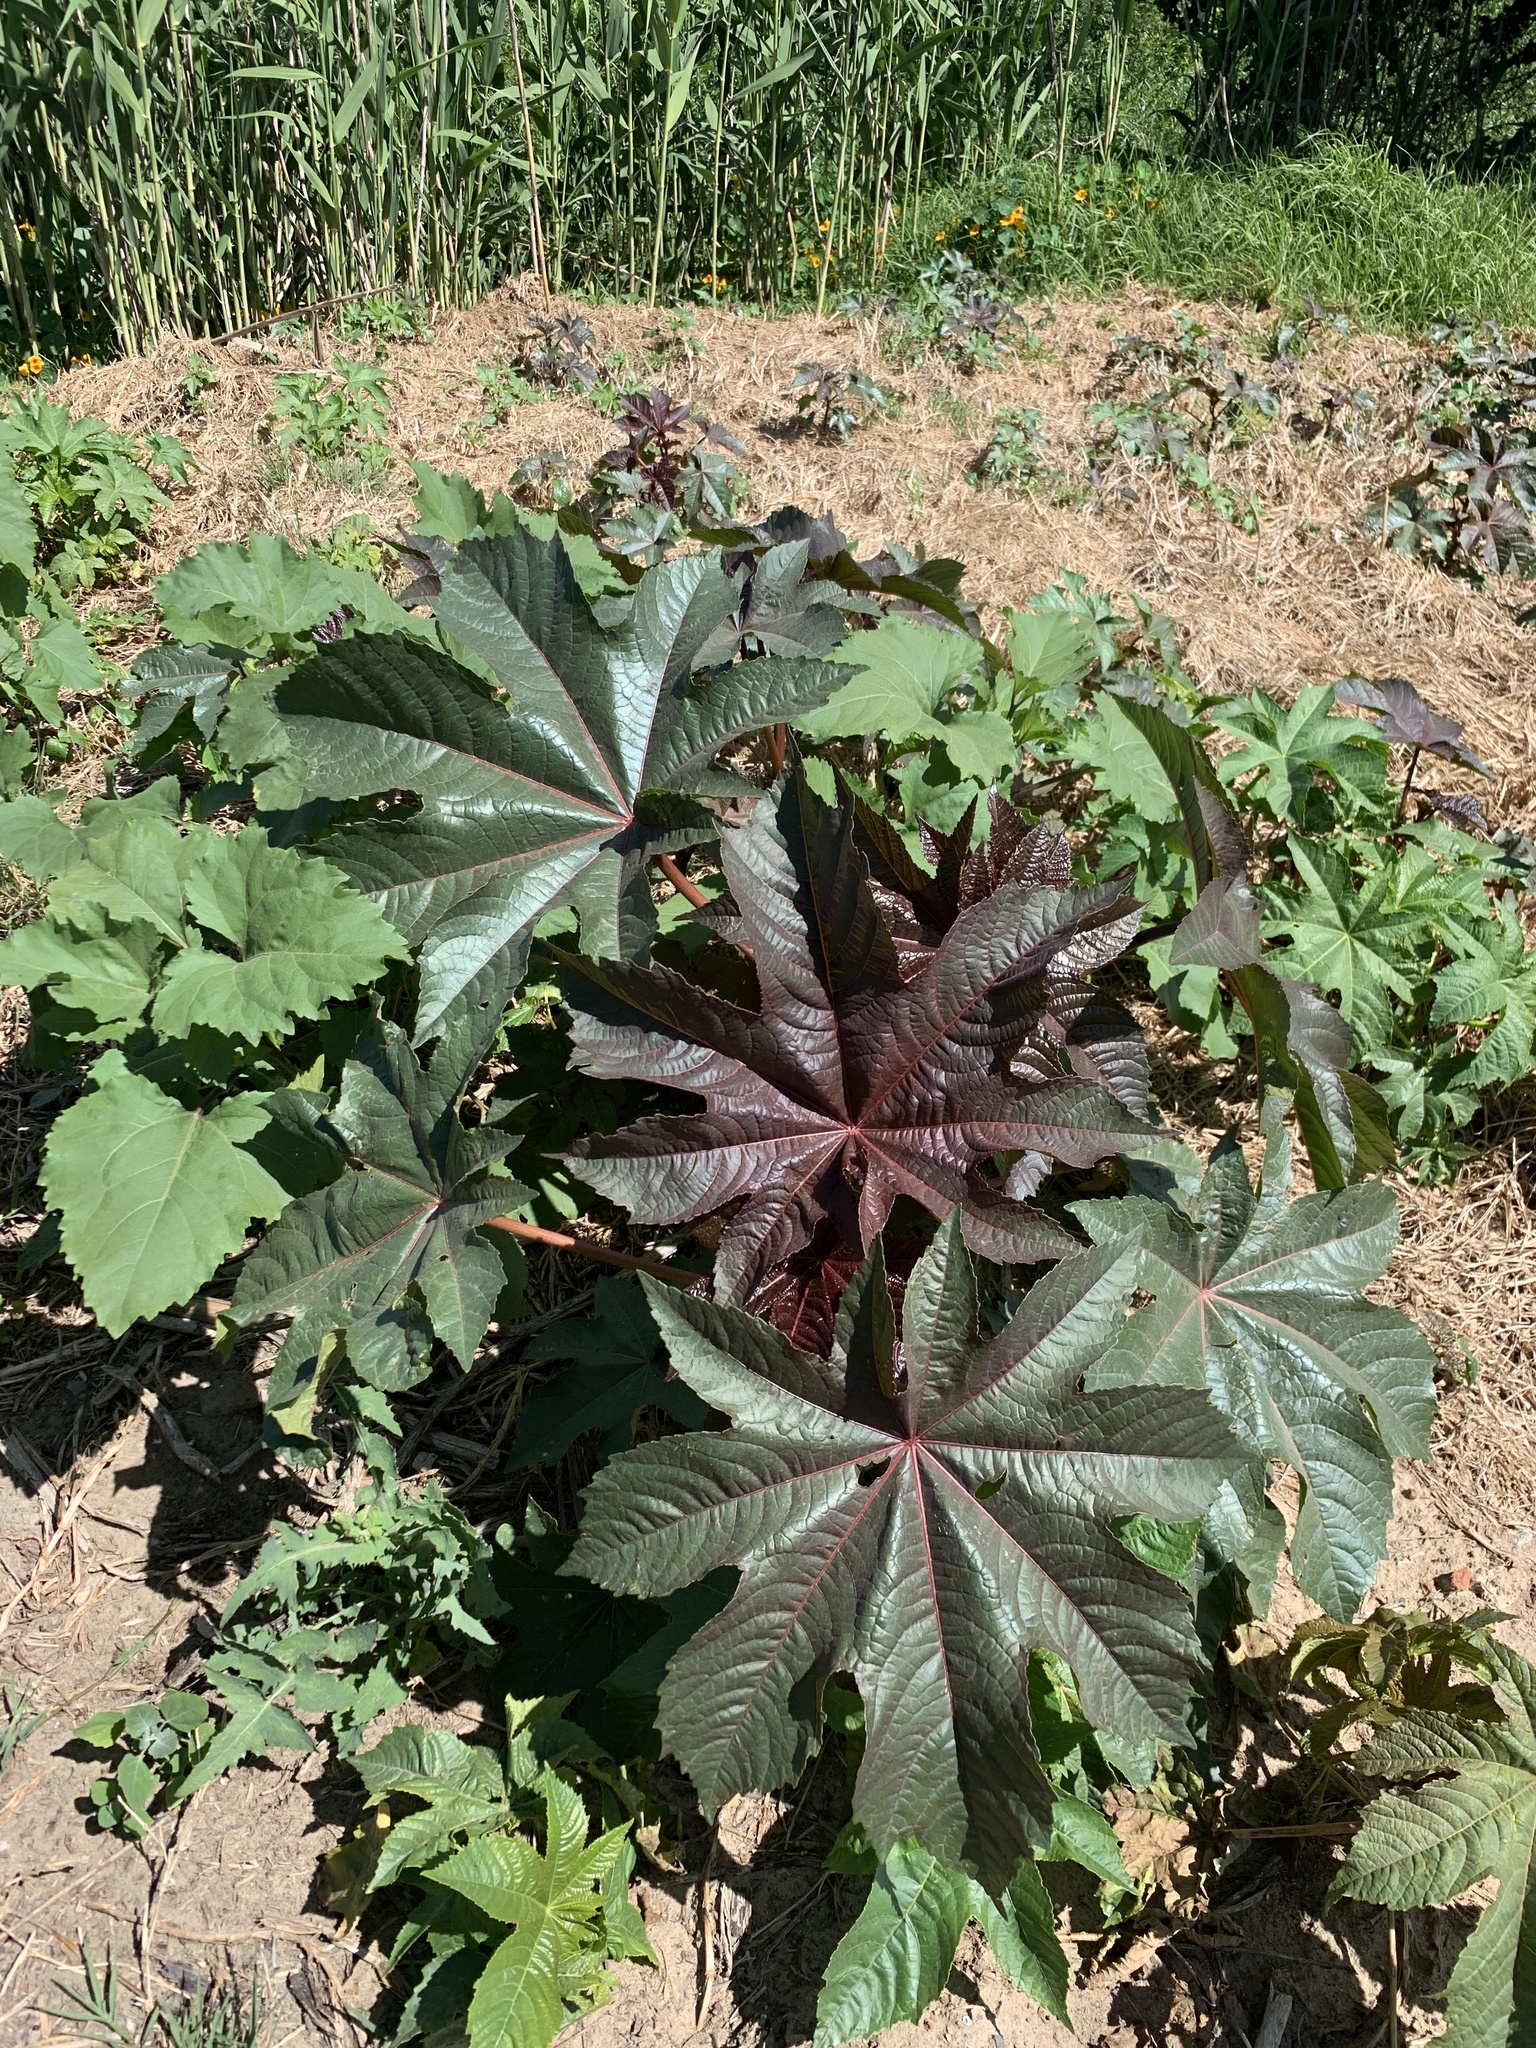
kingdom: Plantae
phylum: Tracheophyta
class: Magnoliopsida
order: Malpighiales
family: Euphorbiaceae
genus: Ricinus
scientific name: Ricinus communis
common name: Castor-oil-plant
